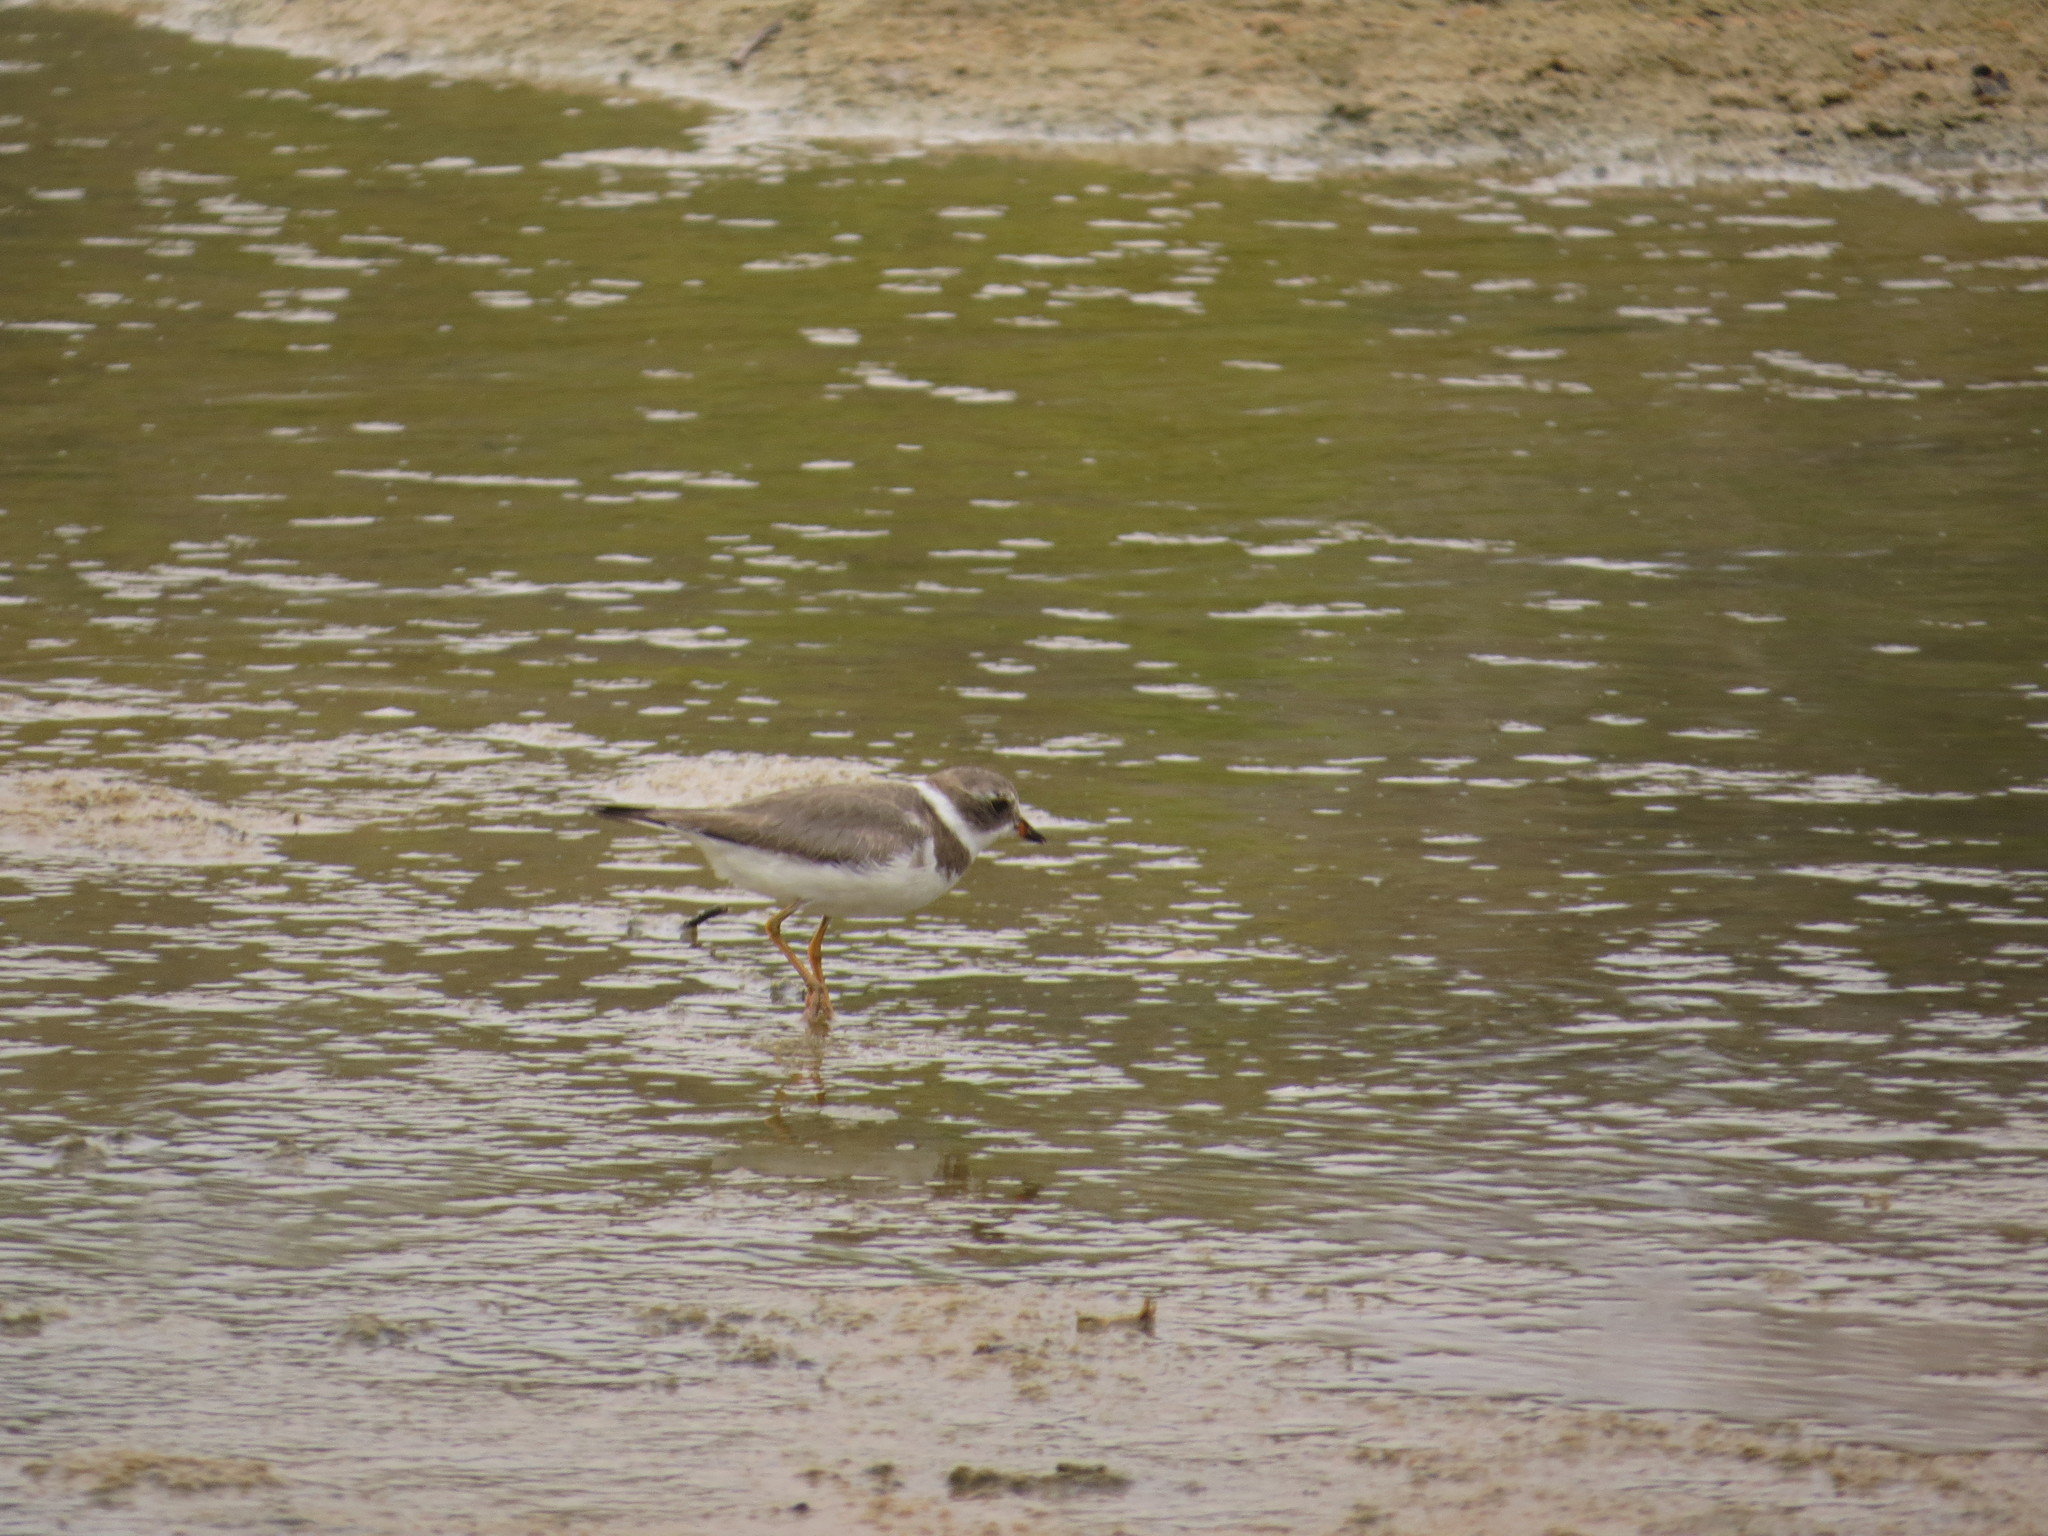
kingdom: Animalia
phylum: Chordata
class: Aves
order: Charadriiformes
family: Charadriidae
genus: Charadrius
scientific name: Charadrius semipalmatus
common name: Semipalmated plover
